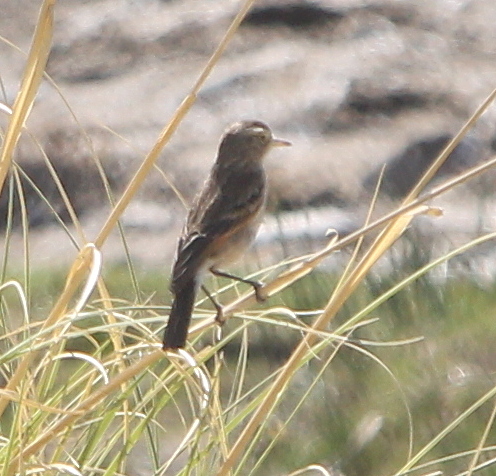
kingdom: Animalia
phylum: Chordata
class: Aves
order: Passeriformes
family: Tyrannidae
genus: Hymenops
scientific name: Hymenops perspicillatus
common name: Spectacled tyrant
